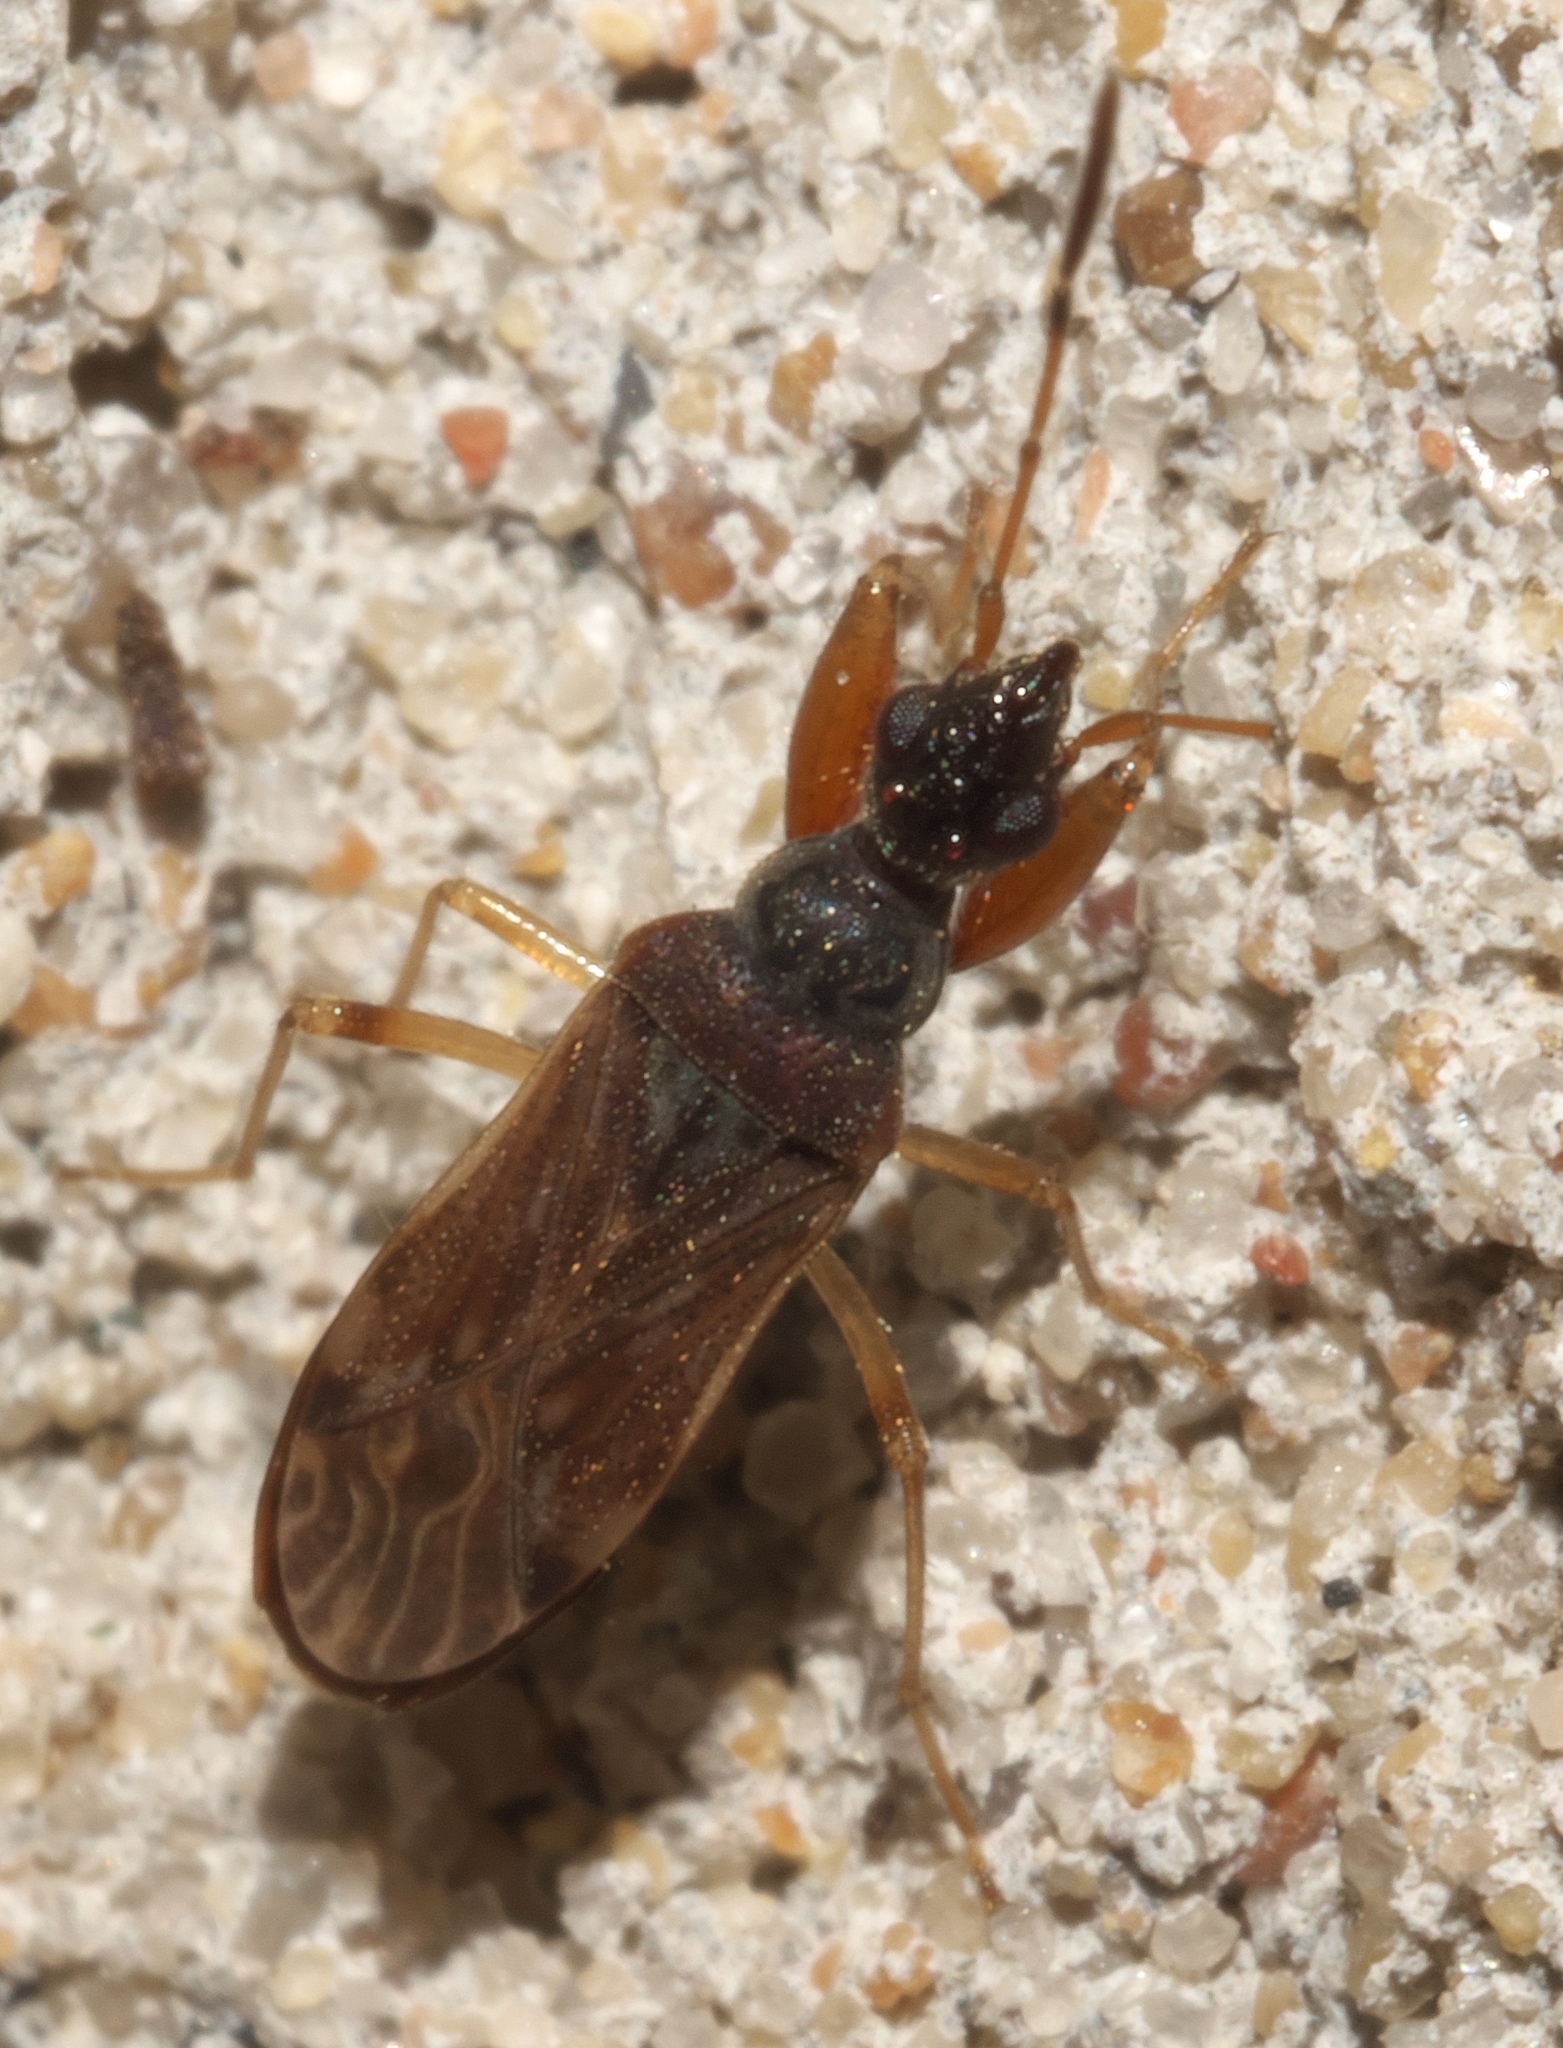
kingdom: Animalia
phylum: Arthropoda
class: Insecta
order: Hemiptera
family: Rhyparochromidae
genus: Heraeus
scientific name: Heraeus plebejus
